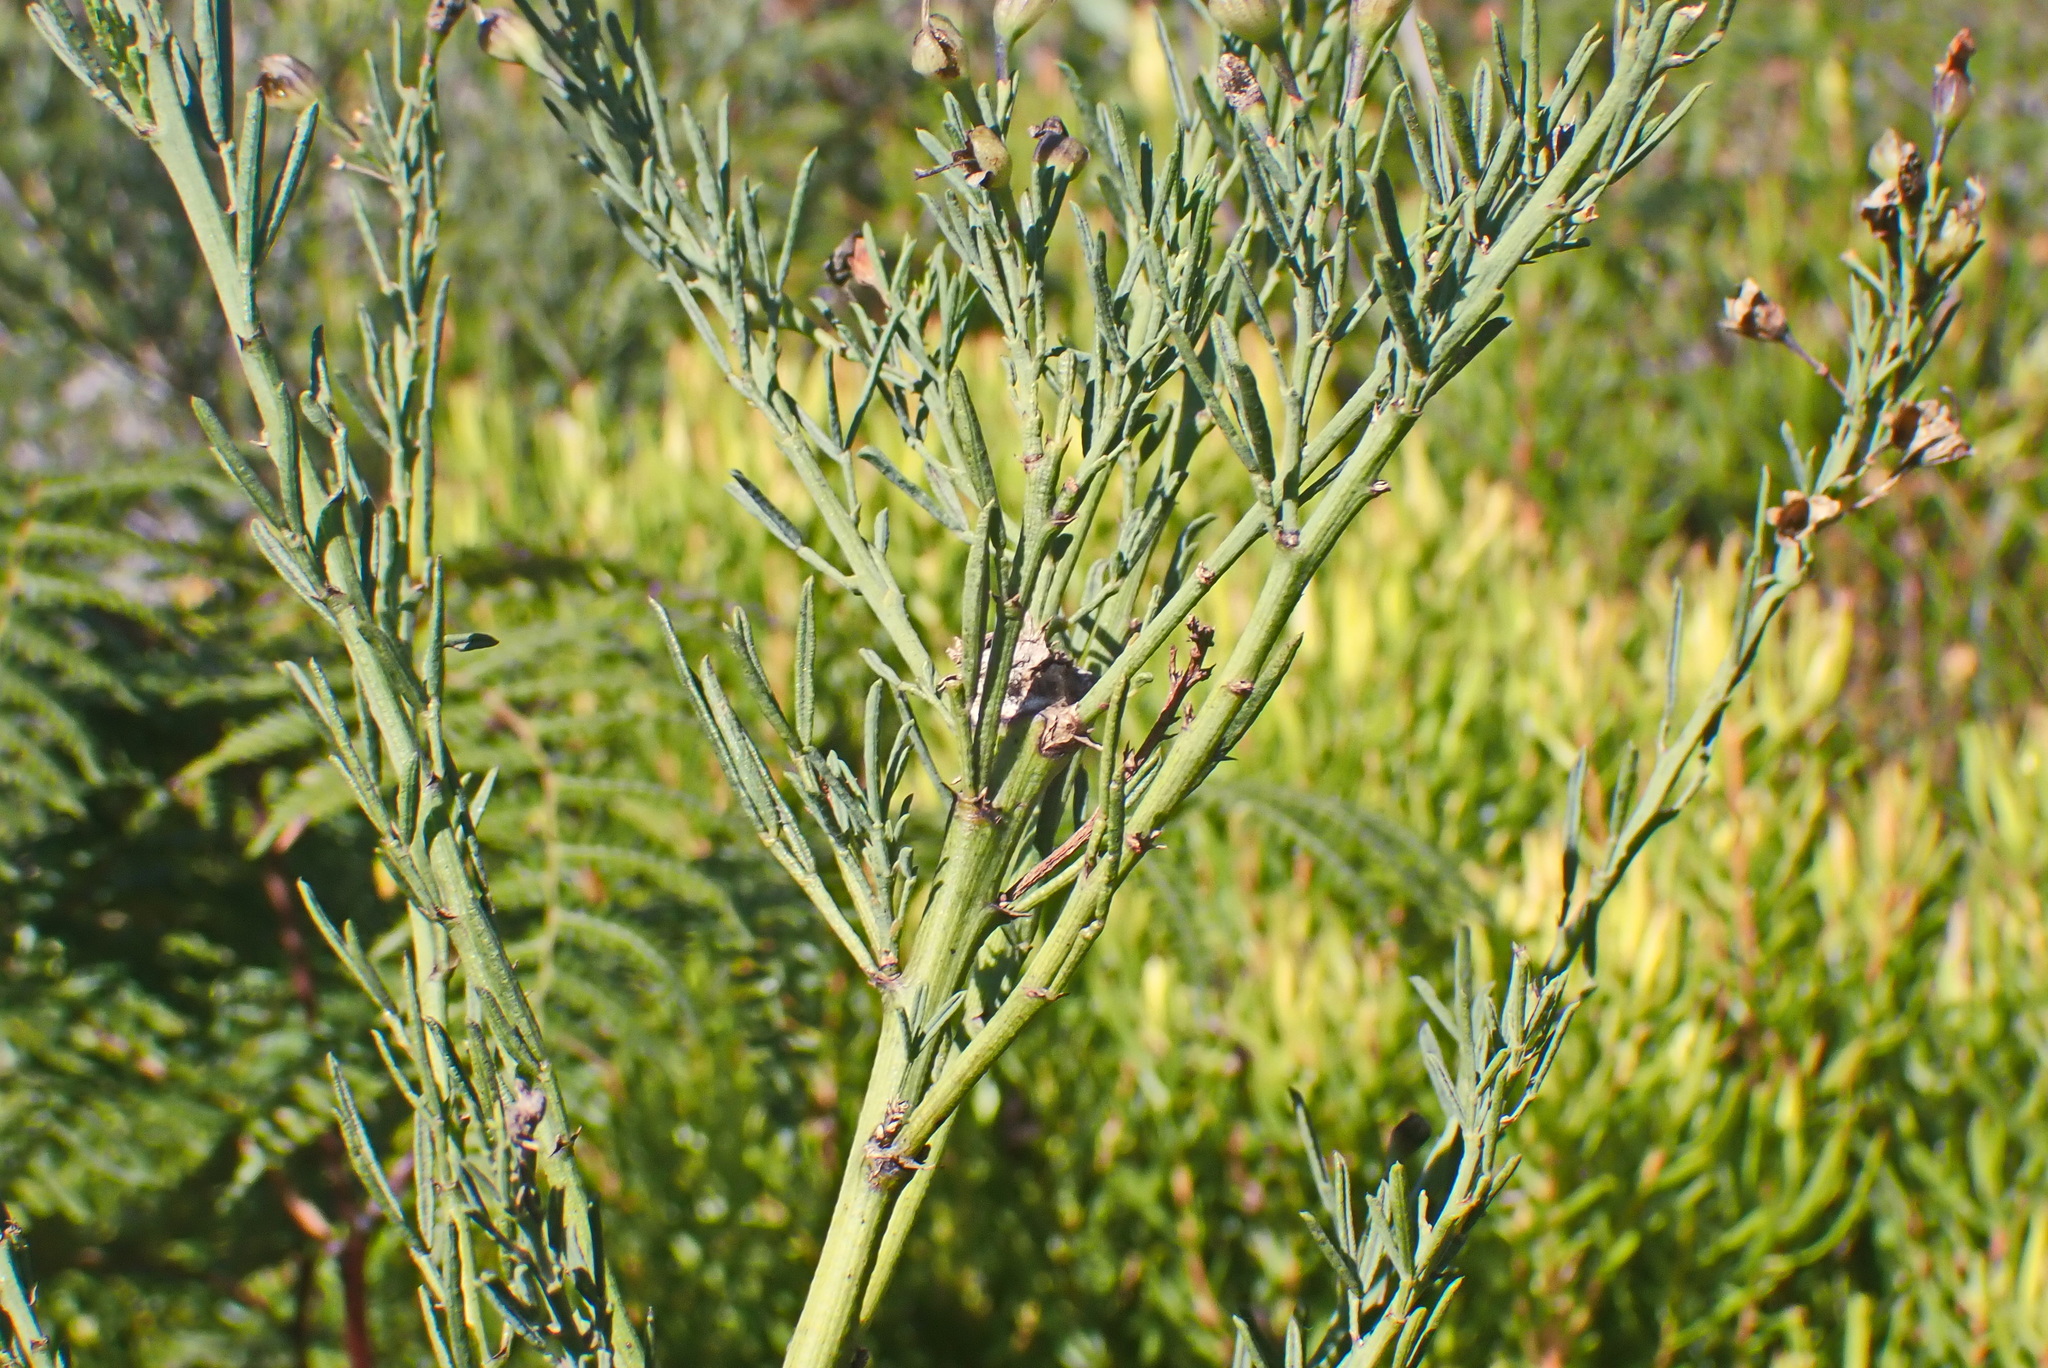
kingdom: Plantae
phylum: Tracheophyta
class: Magnoliopsida
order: Fabales
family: Fabaceae
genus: Psoralea
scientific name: Psoralea axillaris
